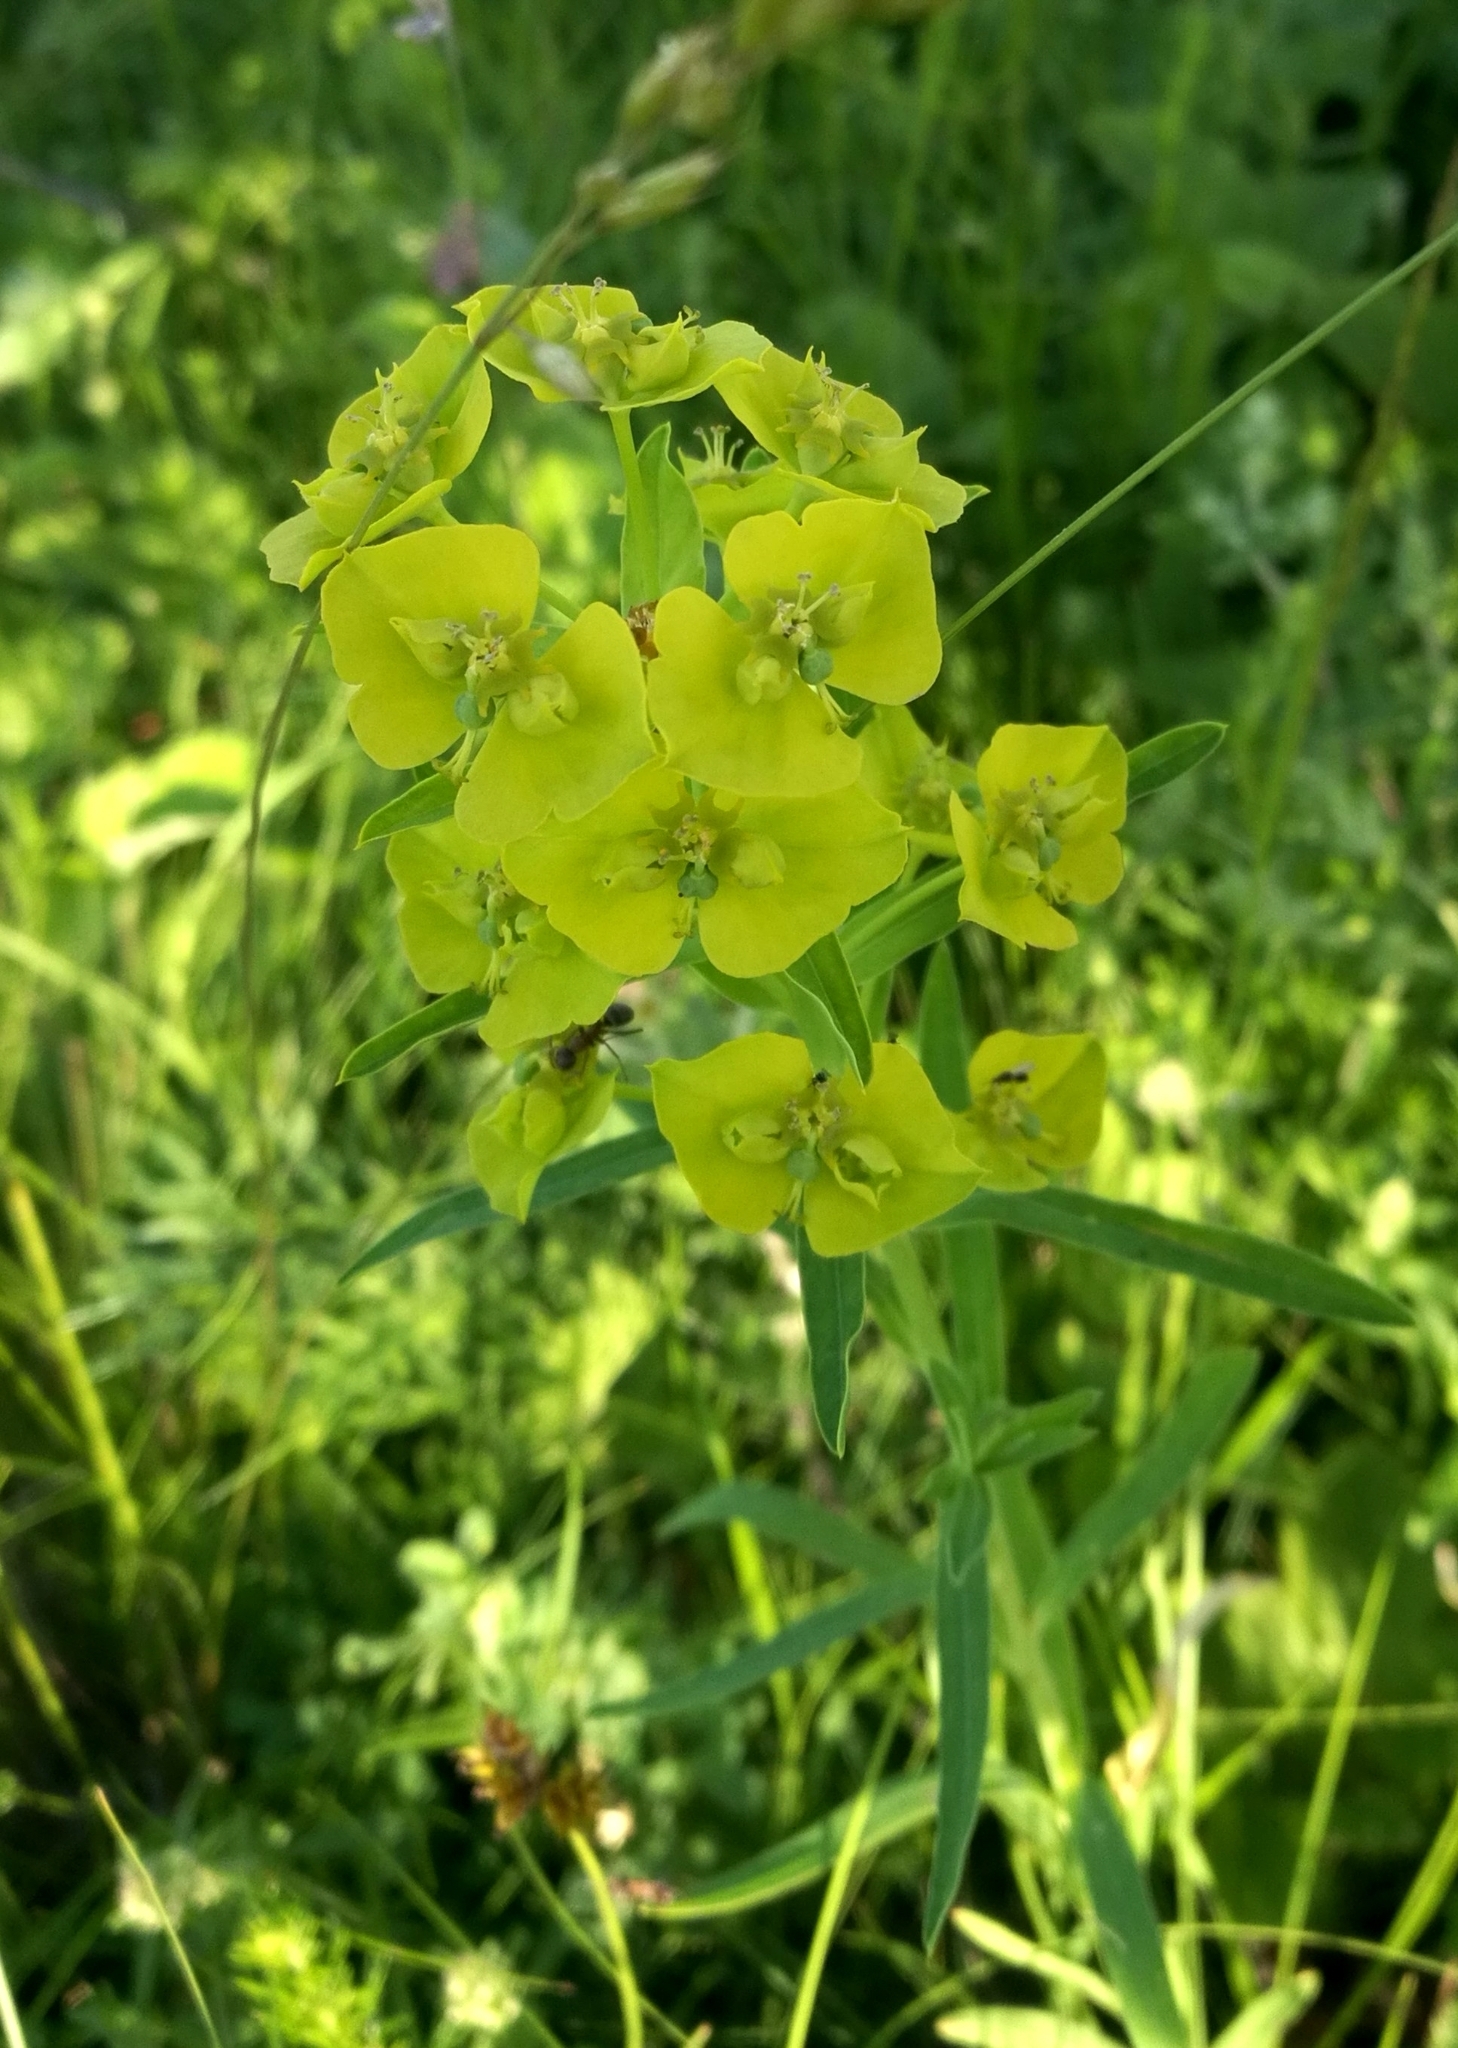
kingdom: Plantae
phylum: Tracheophyta
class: Magnoliopsida
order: Malpighiales
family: Euphorbiaceae
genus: Euphorbia
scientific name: Euphorbia virgata
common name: Leafy spurge
